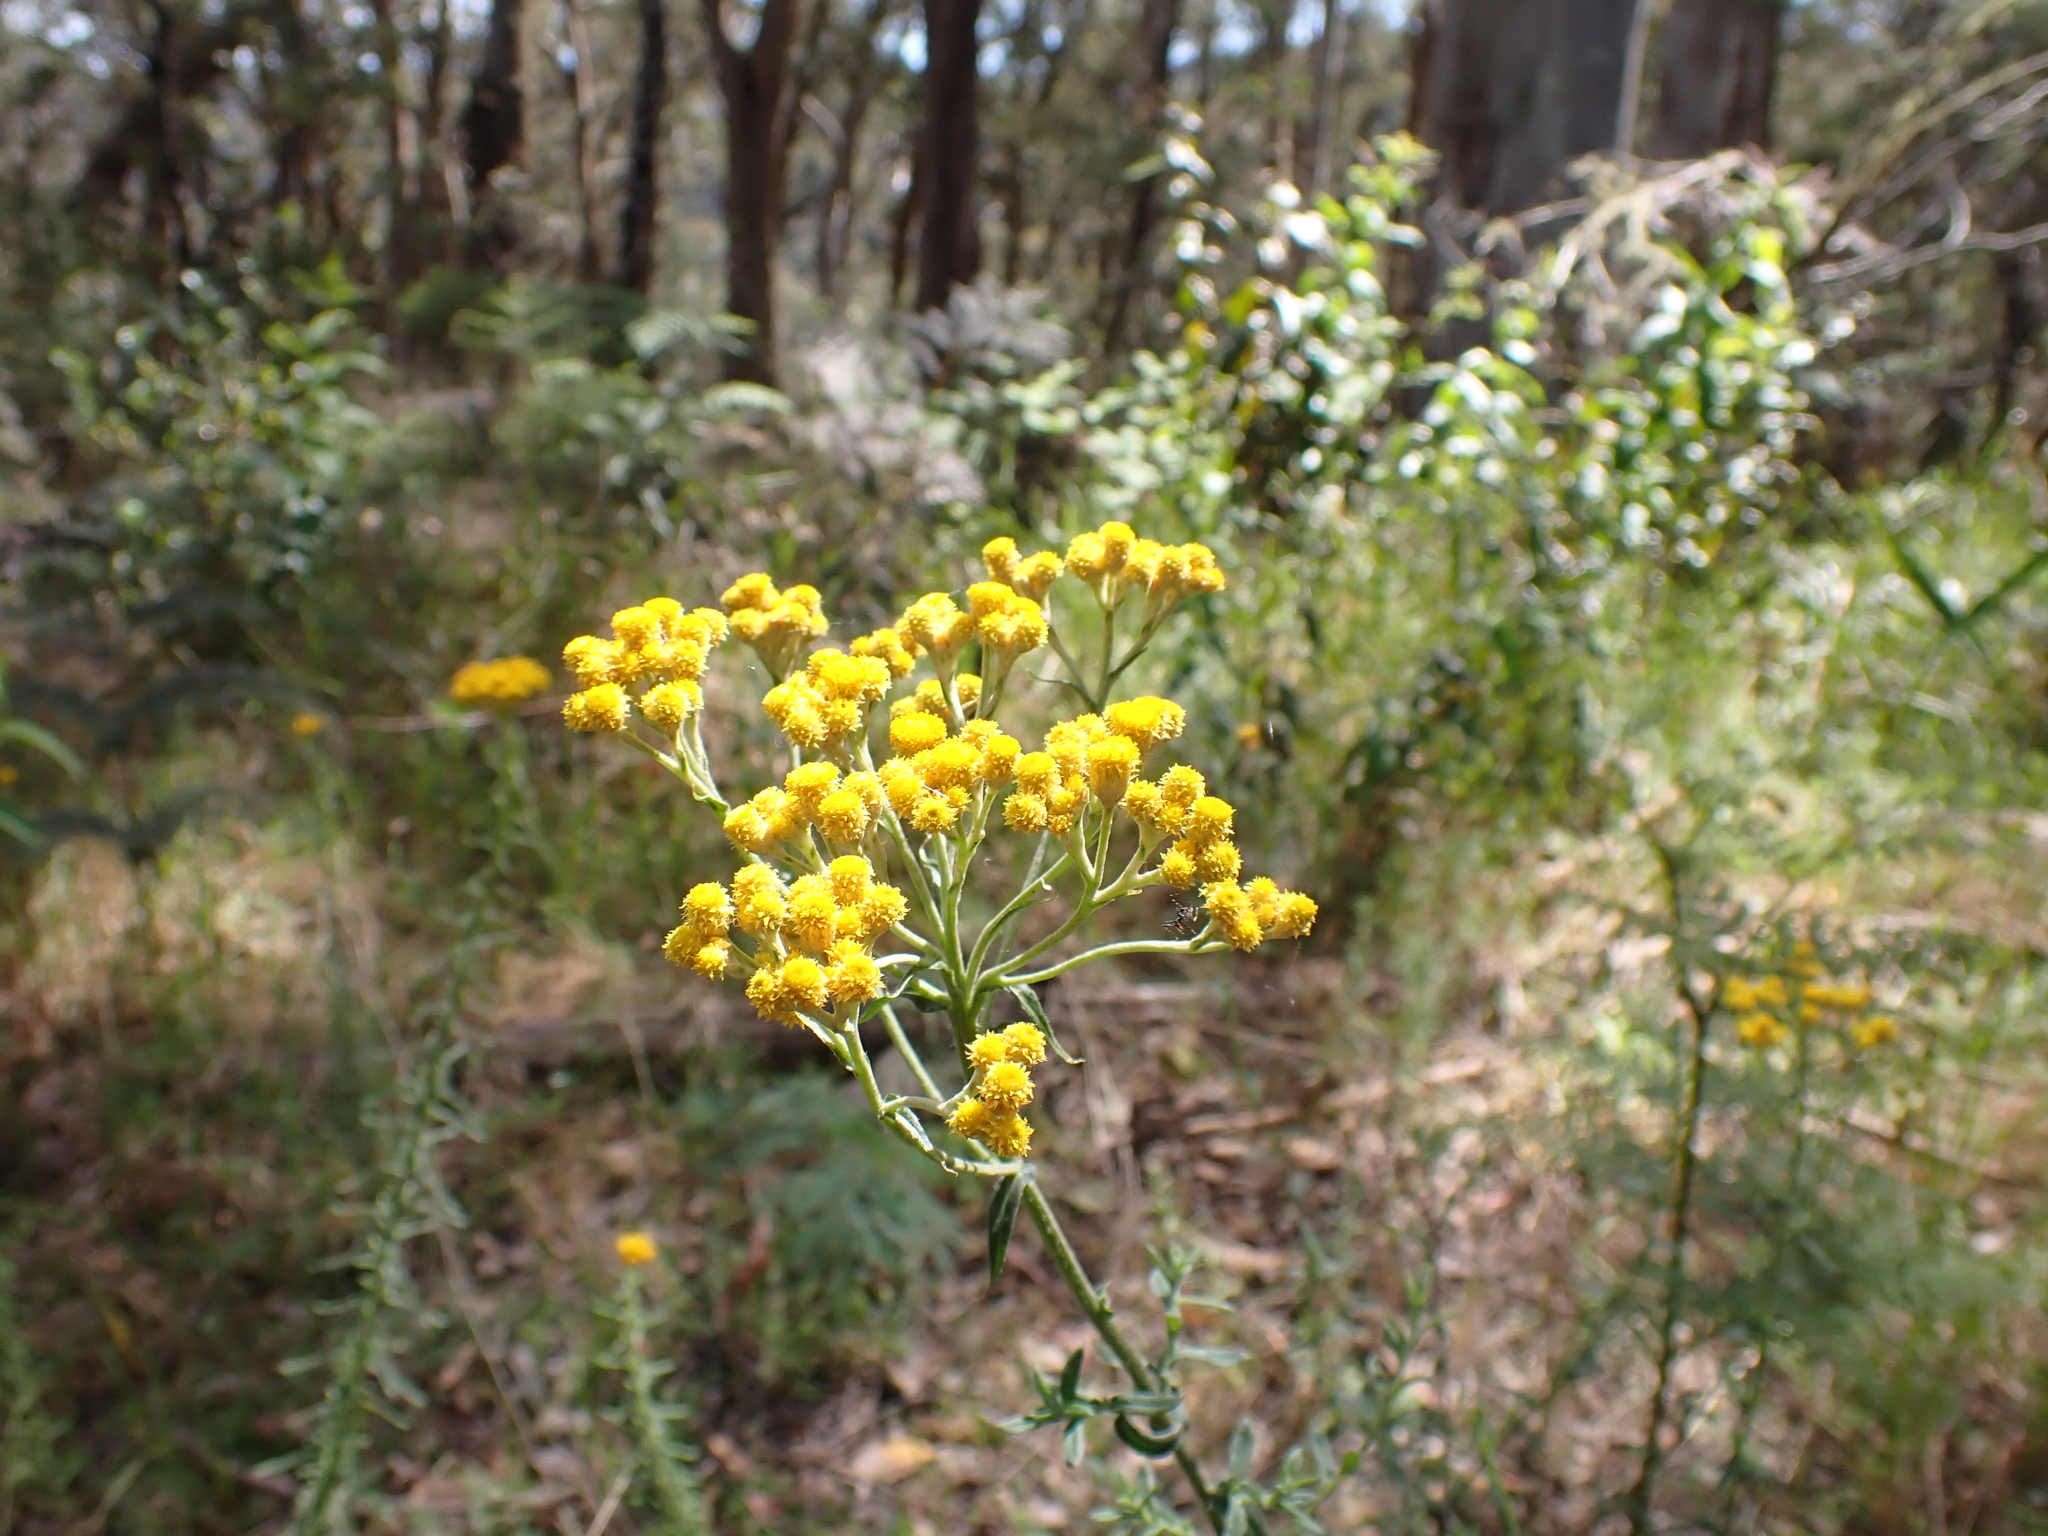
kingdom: Plantae
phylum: Tracheophyta
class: Magnoliopsida
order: Asterales
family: Asteraceae
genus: Chrysocephalum
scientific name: Chrysocephalum semipapposum
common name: Clustered everlasting
